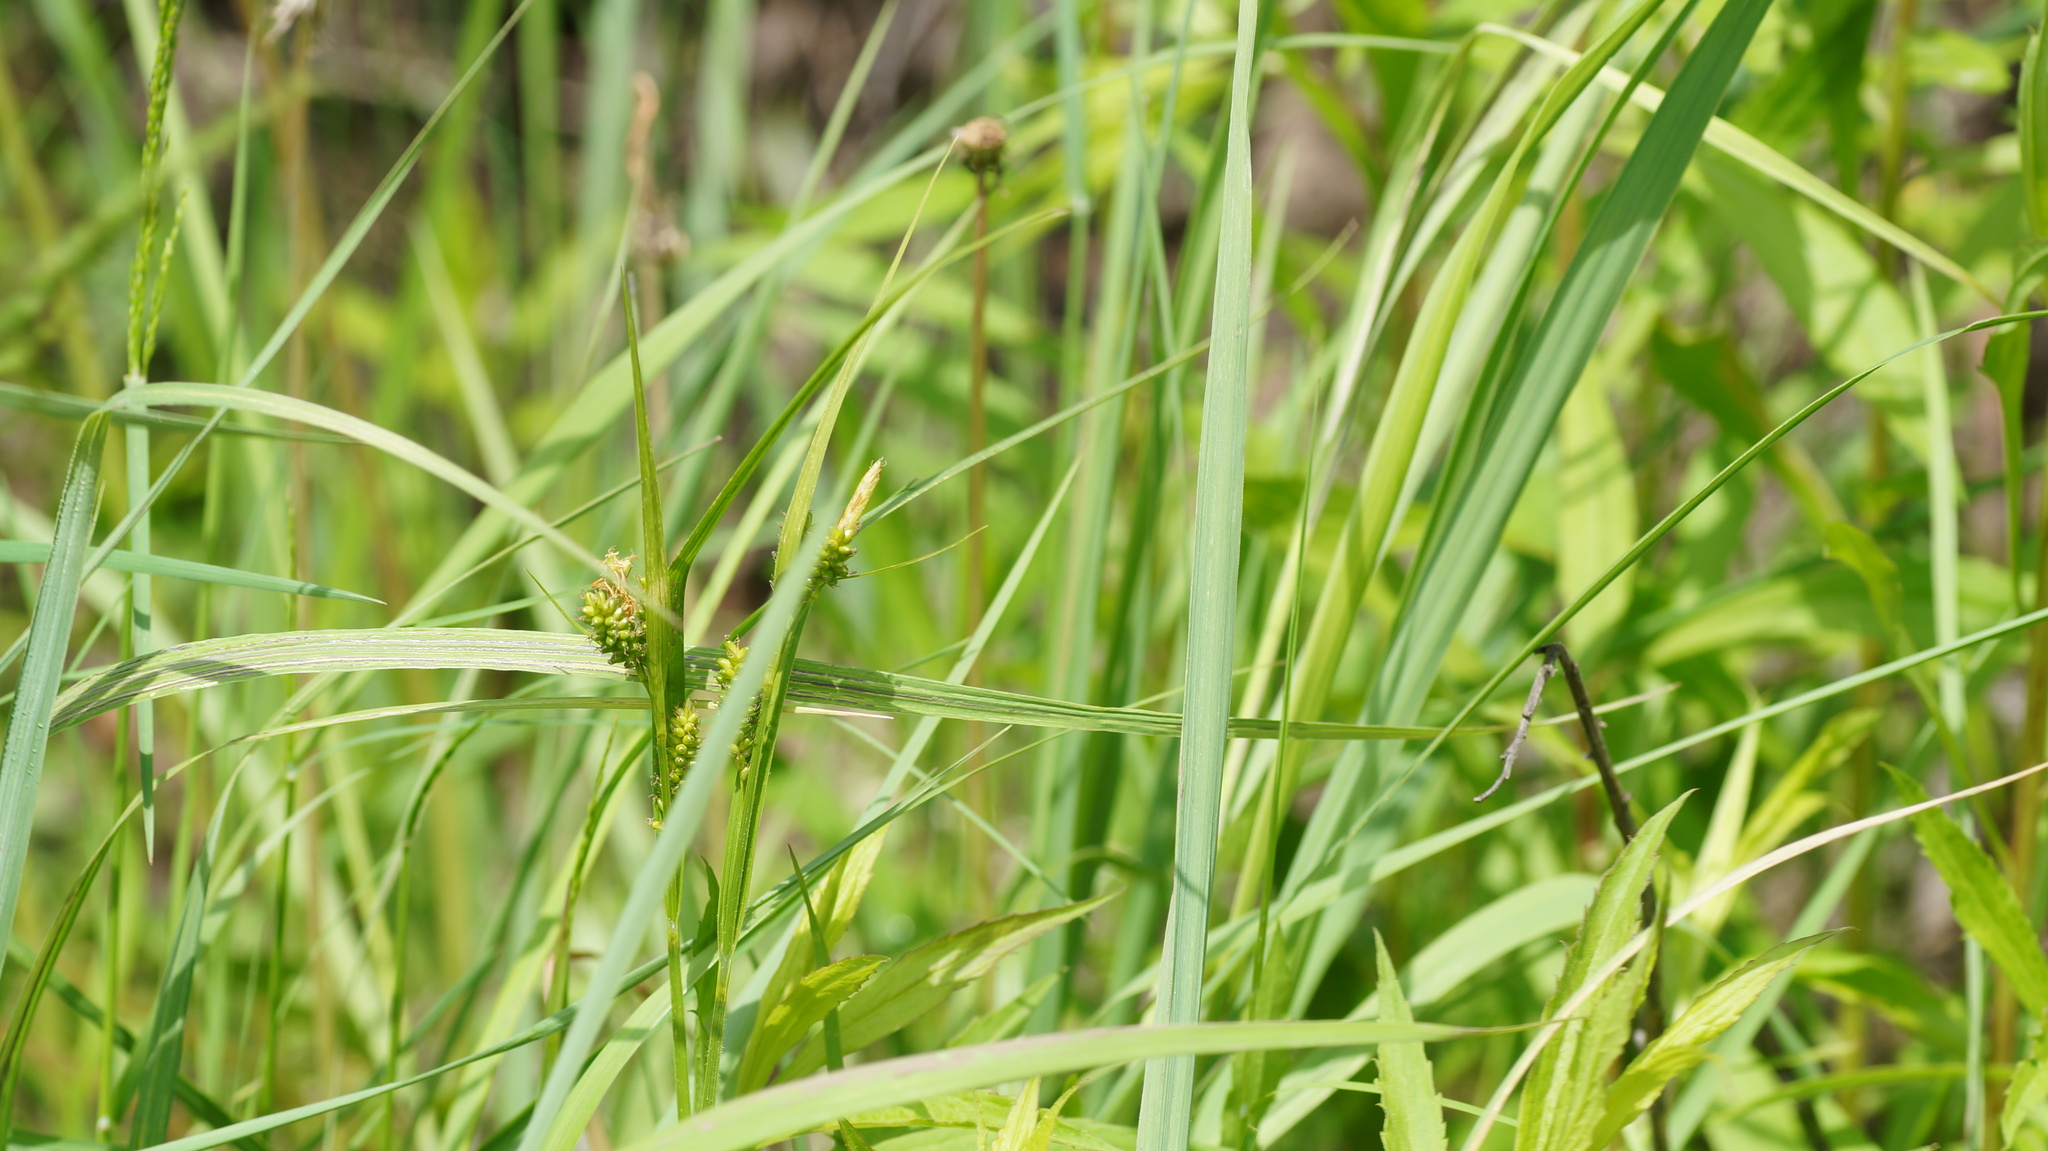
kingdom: Plantae
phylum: Tracheophyta
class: Liliopsida
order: Poales
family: Cyperaceae
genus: Carex
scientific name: Carex pallescens
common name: Pale sedge
